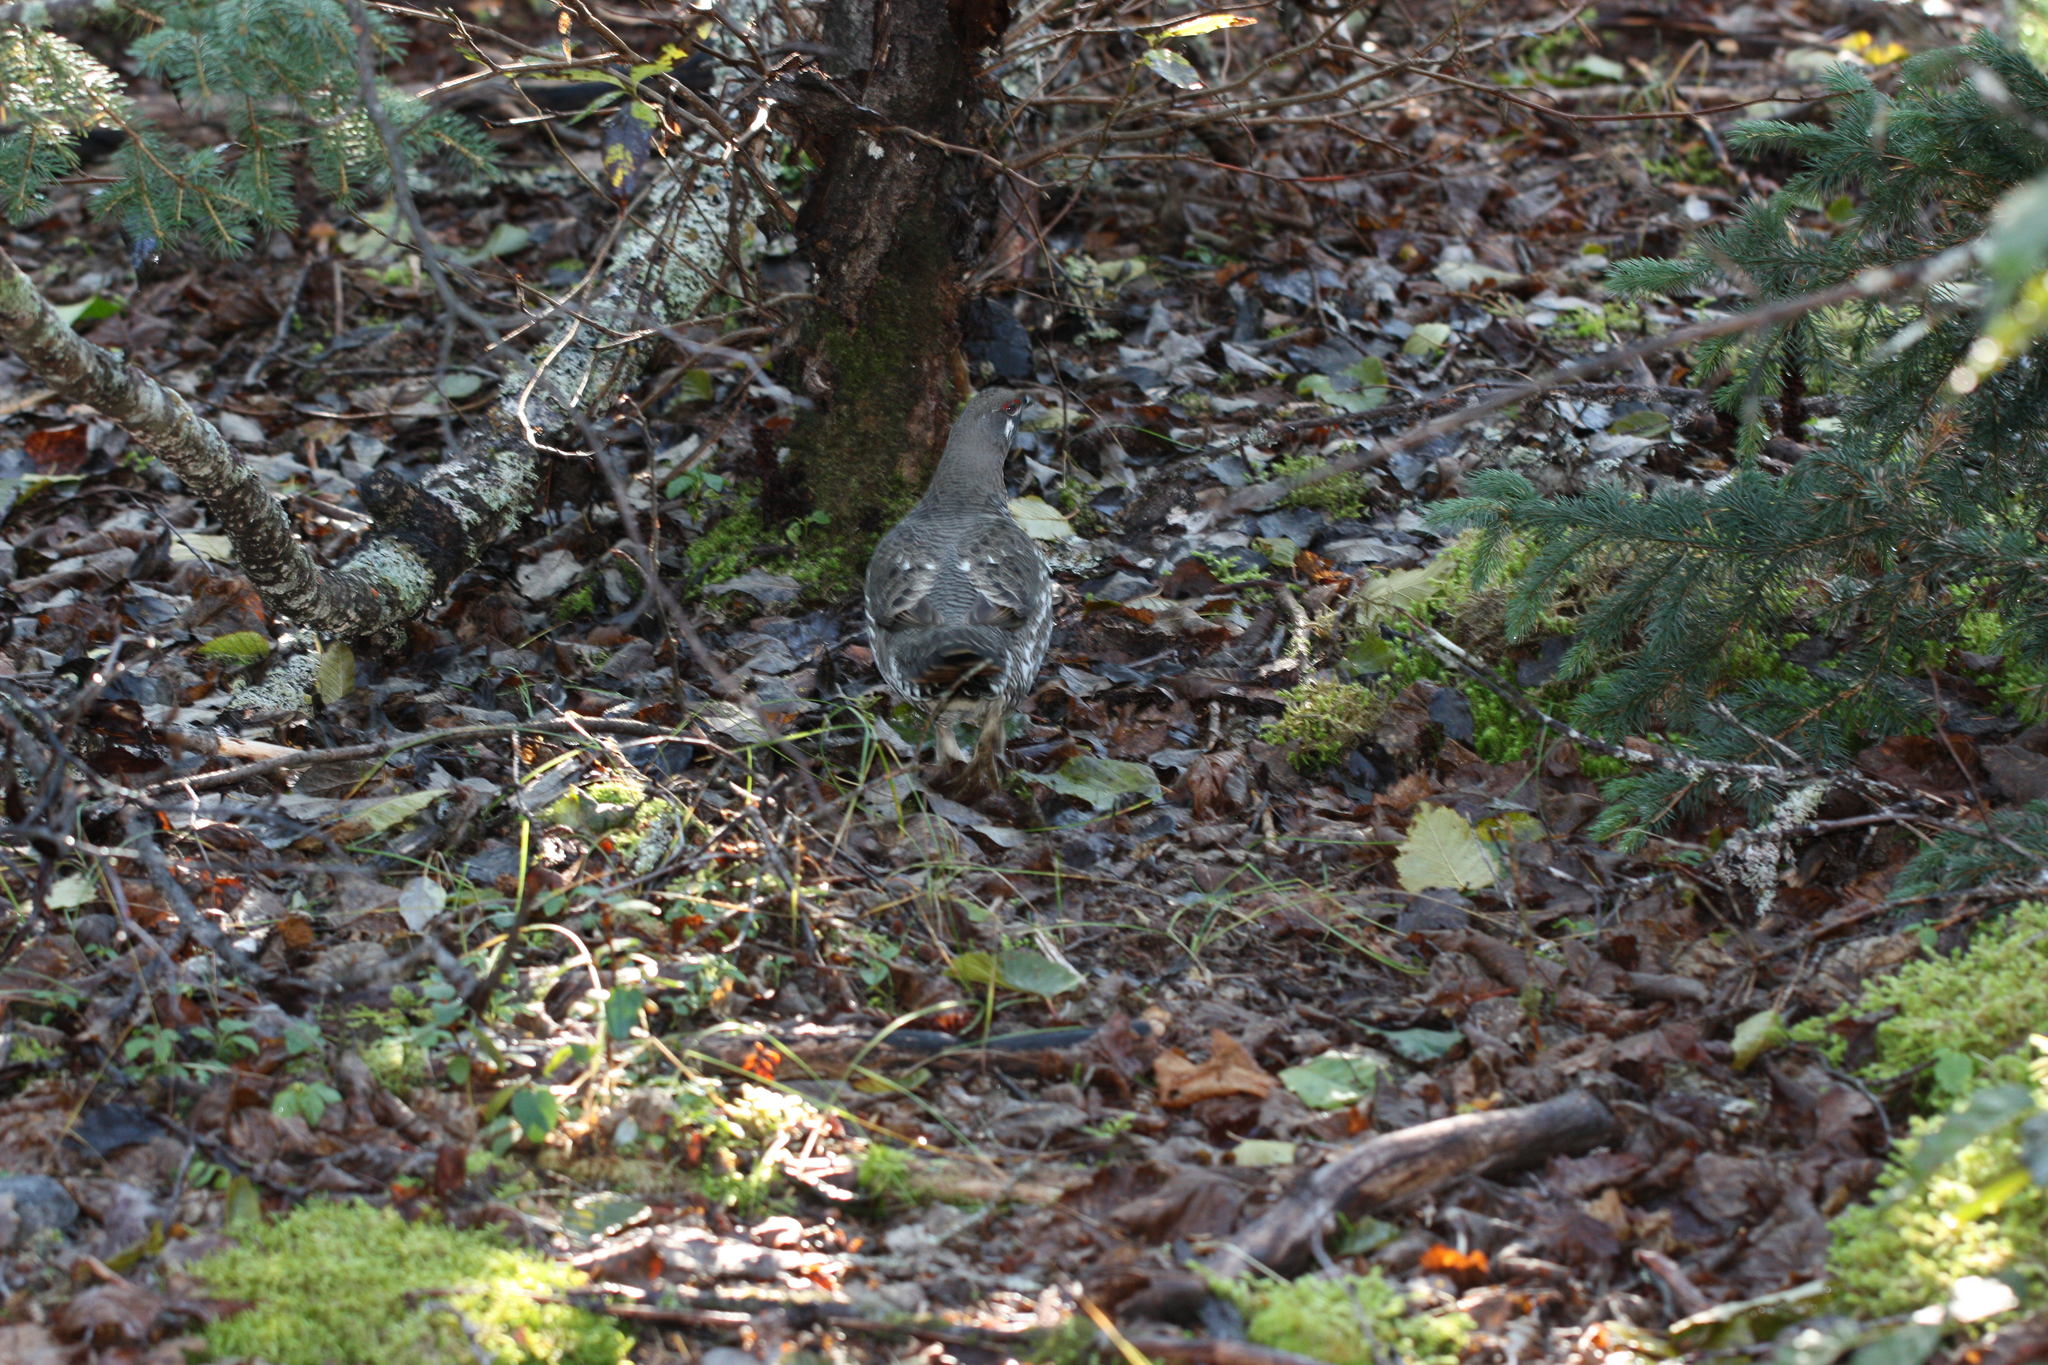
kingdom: Animalia
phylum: Chordata
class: Aves
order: Galliformes
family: Phasianidae
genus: Canachites
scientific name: Canachites canadensis
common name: Spruce grouse
